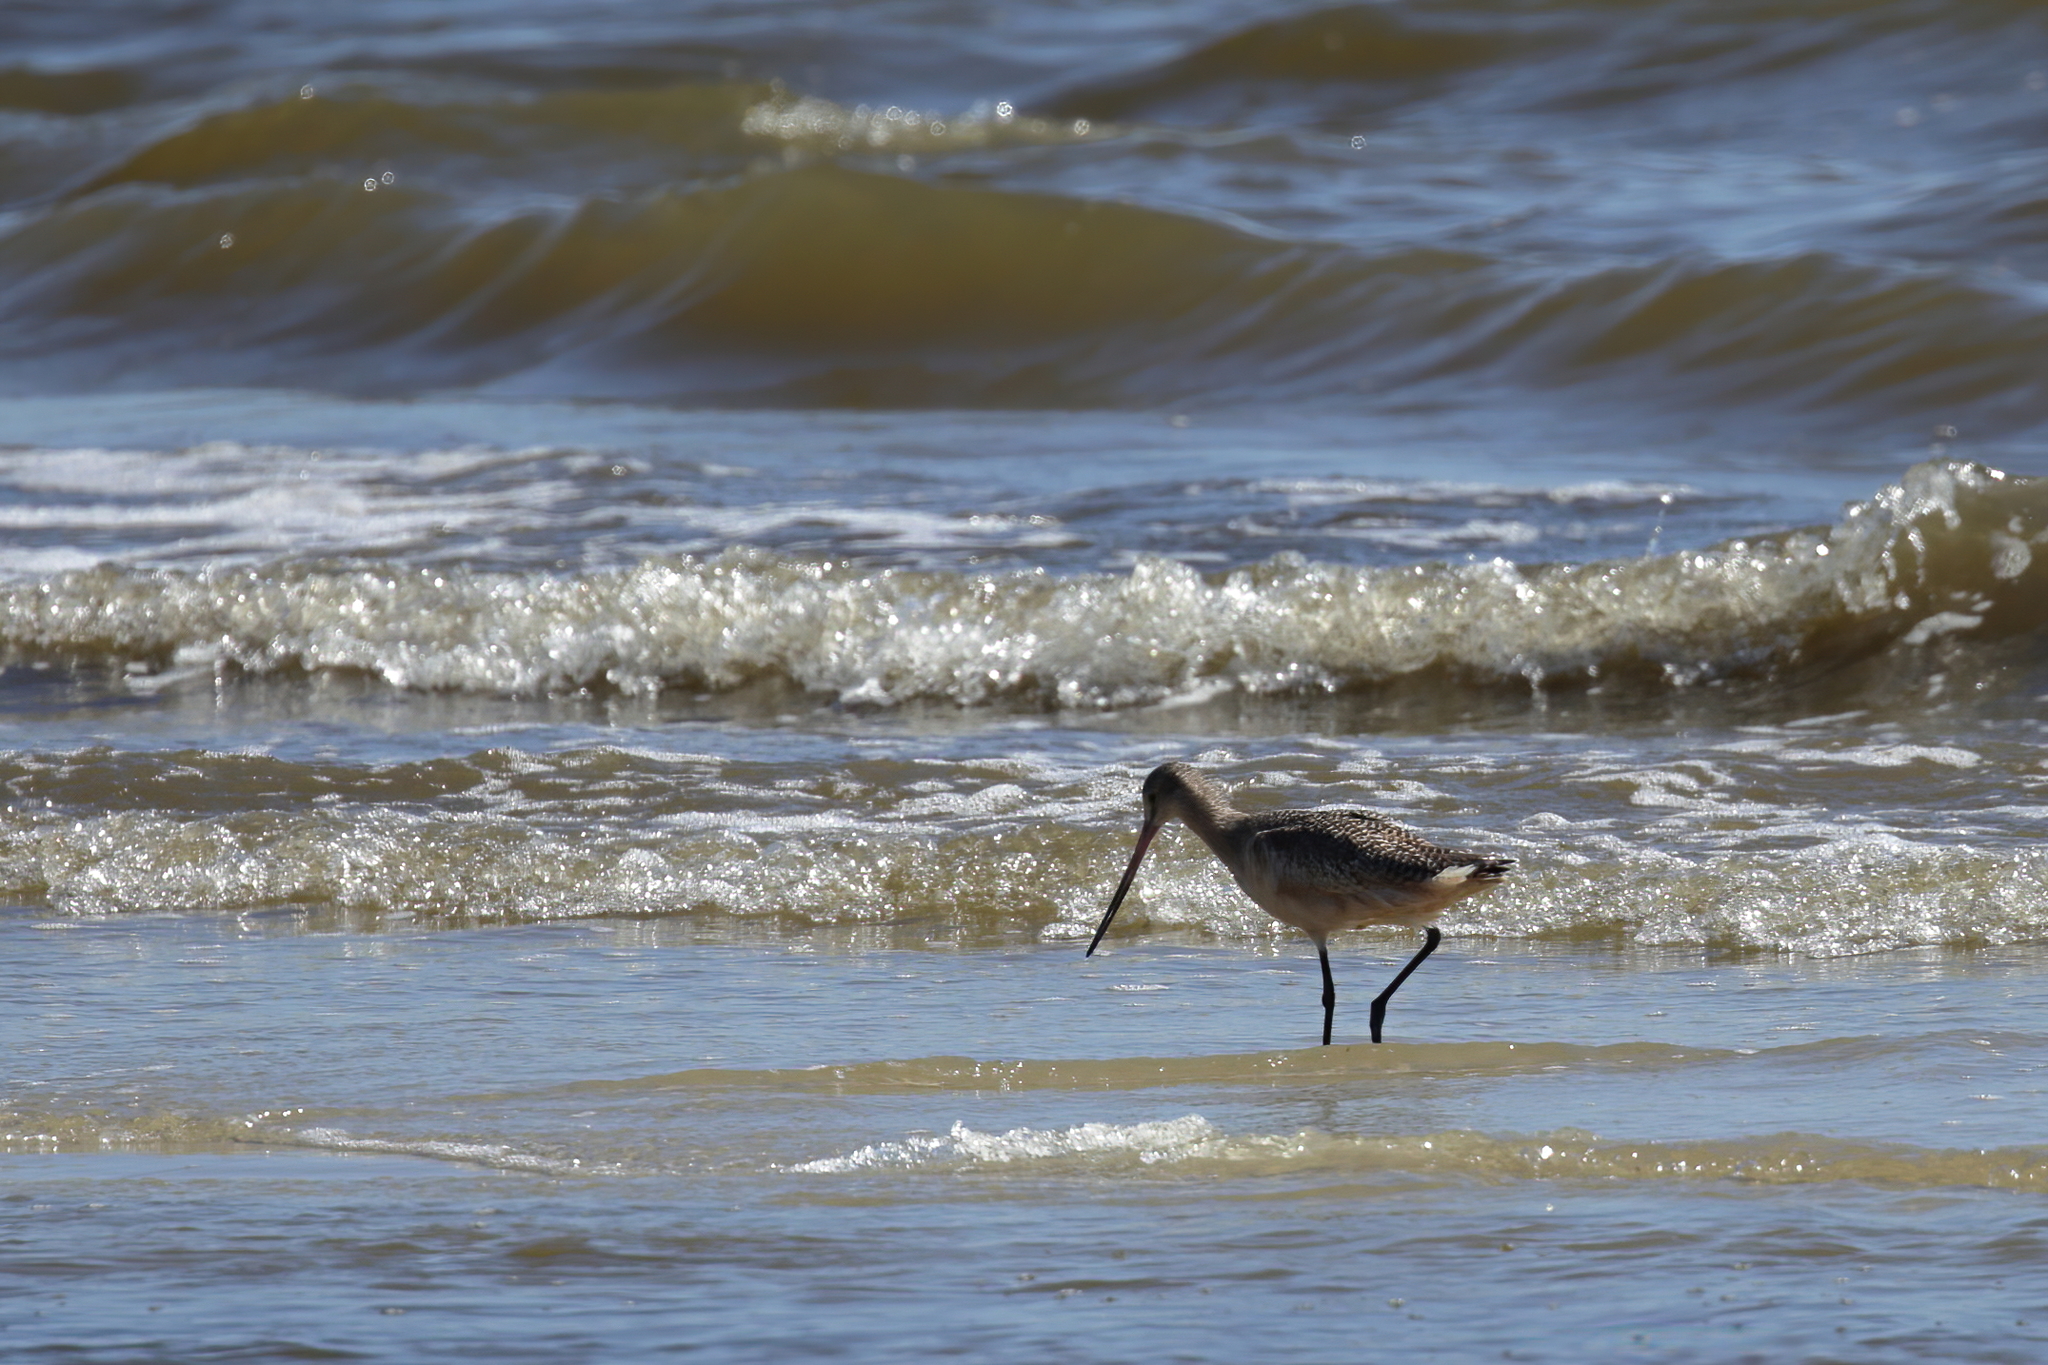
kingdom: Animalia
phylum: Chordata
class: Aves
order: Charadriiformes
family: Scolopacidae
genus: Limosa
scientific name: Limosa fedoa
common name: Marbled godwit
